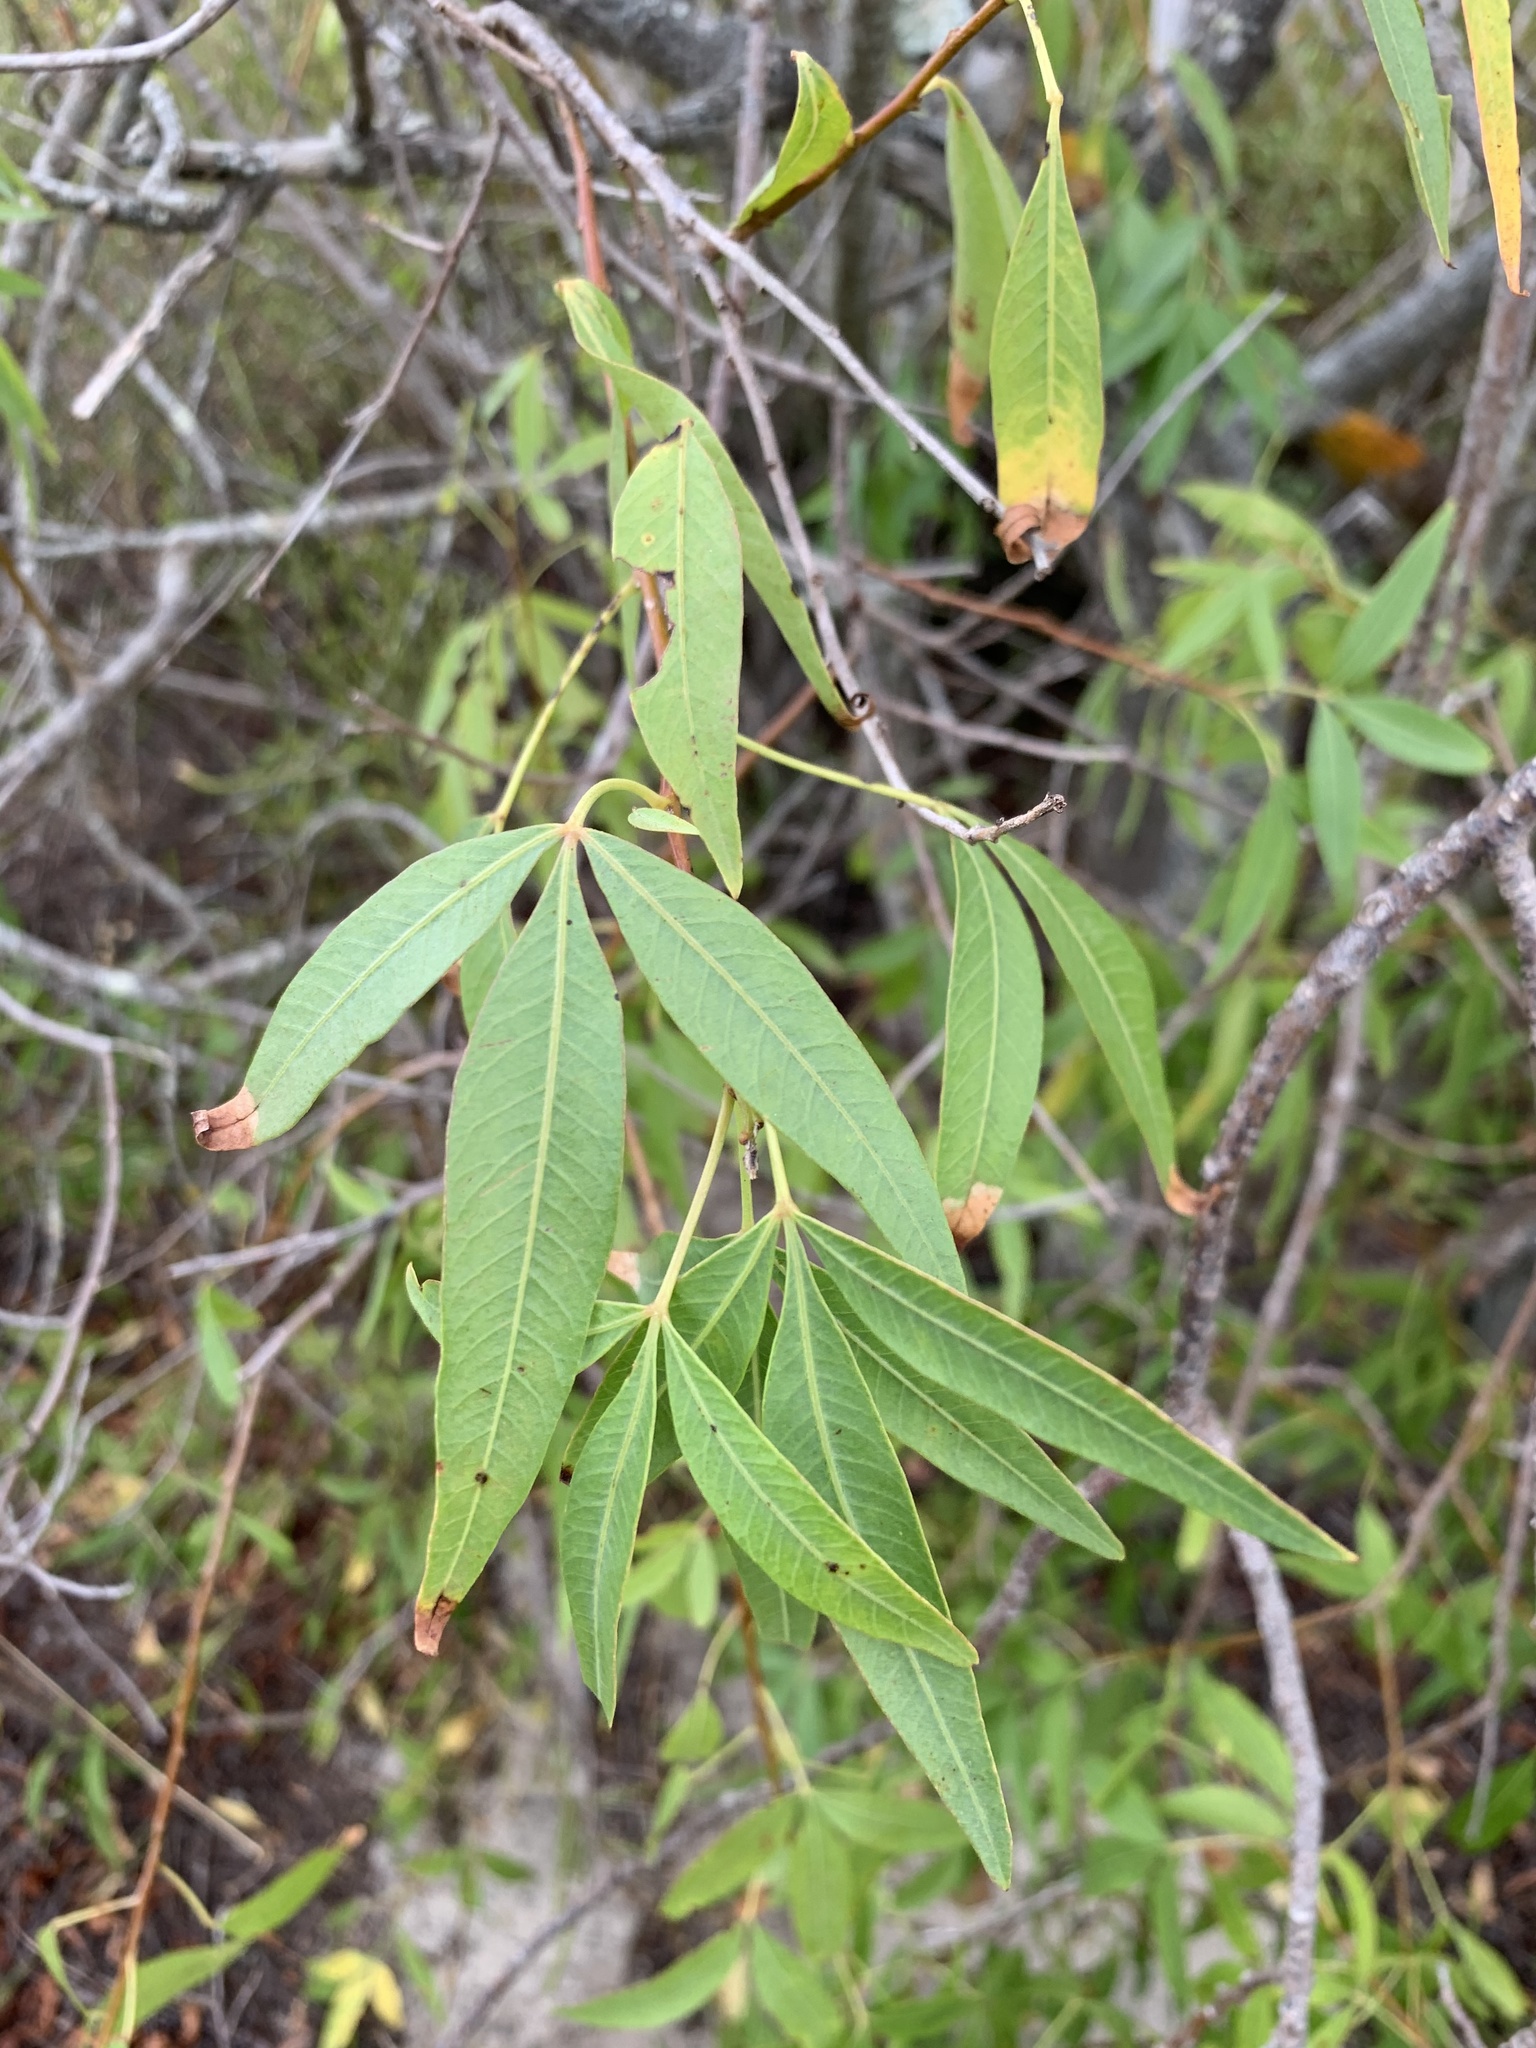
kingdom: Plantae
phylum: Tracheophyta
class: Magnoliopsida
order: Sapindales
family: Anacardiaceae
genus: Searsia
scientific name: Searsia pendulina
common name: White karee
